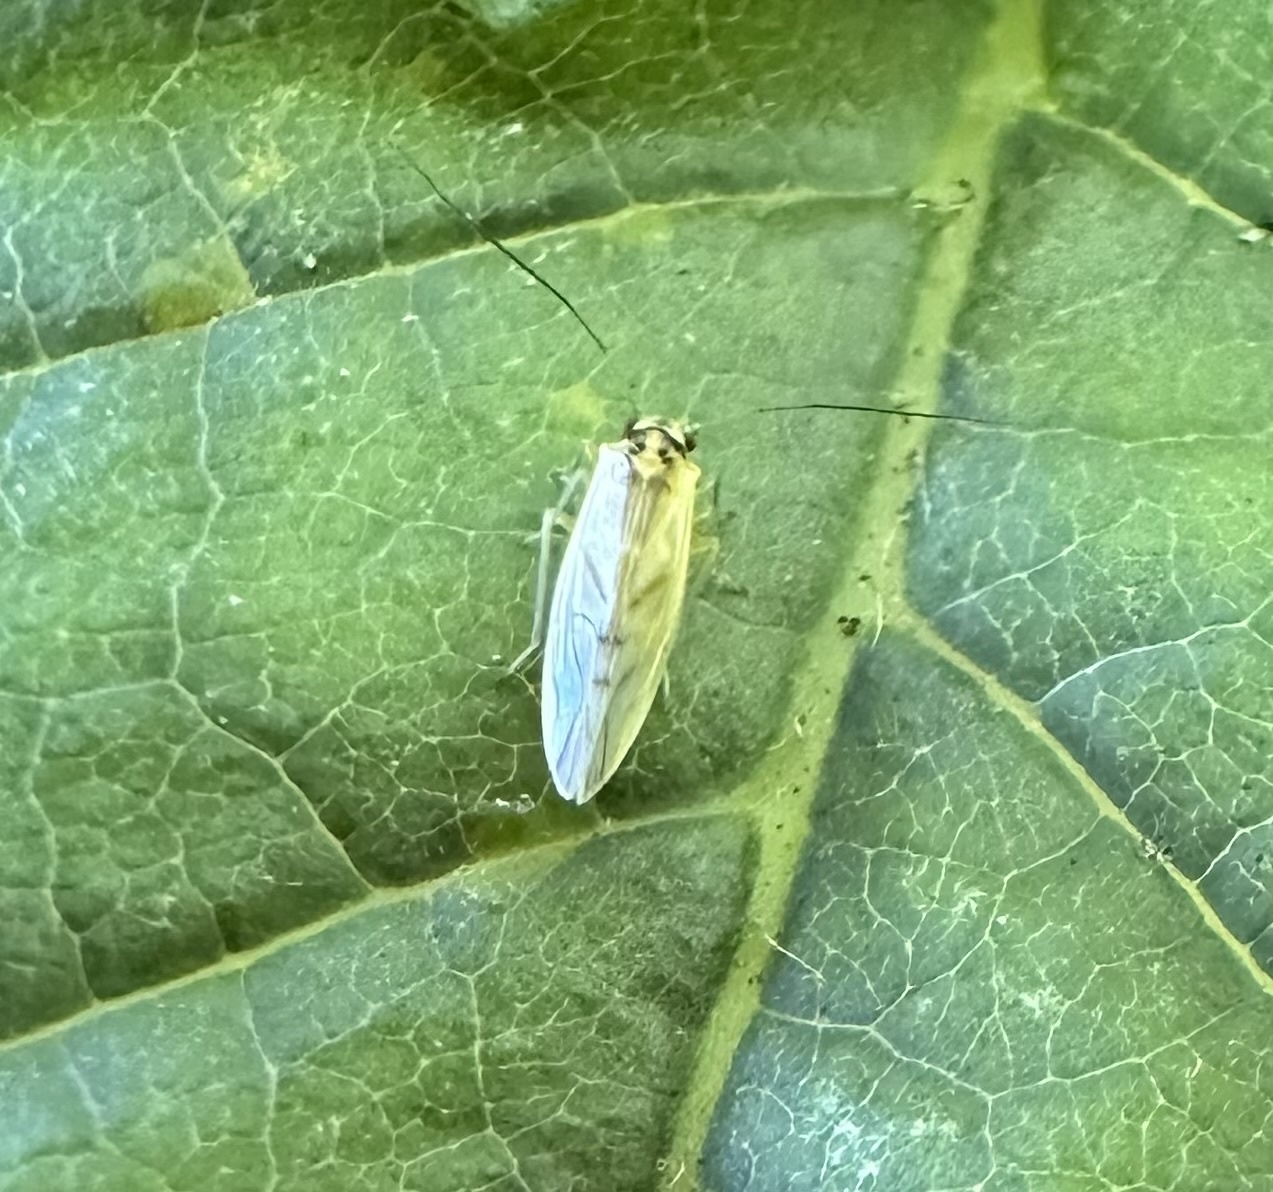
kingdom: Animalia
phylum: Arthropoda
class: Insecta
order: Psocodea
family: Caeciliusidae
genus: Valenzuela
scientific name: Valenzuela flavidus
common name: Yellow barklouse
